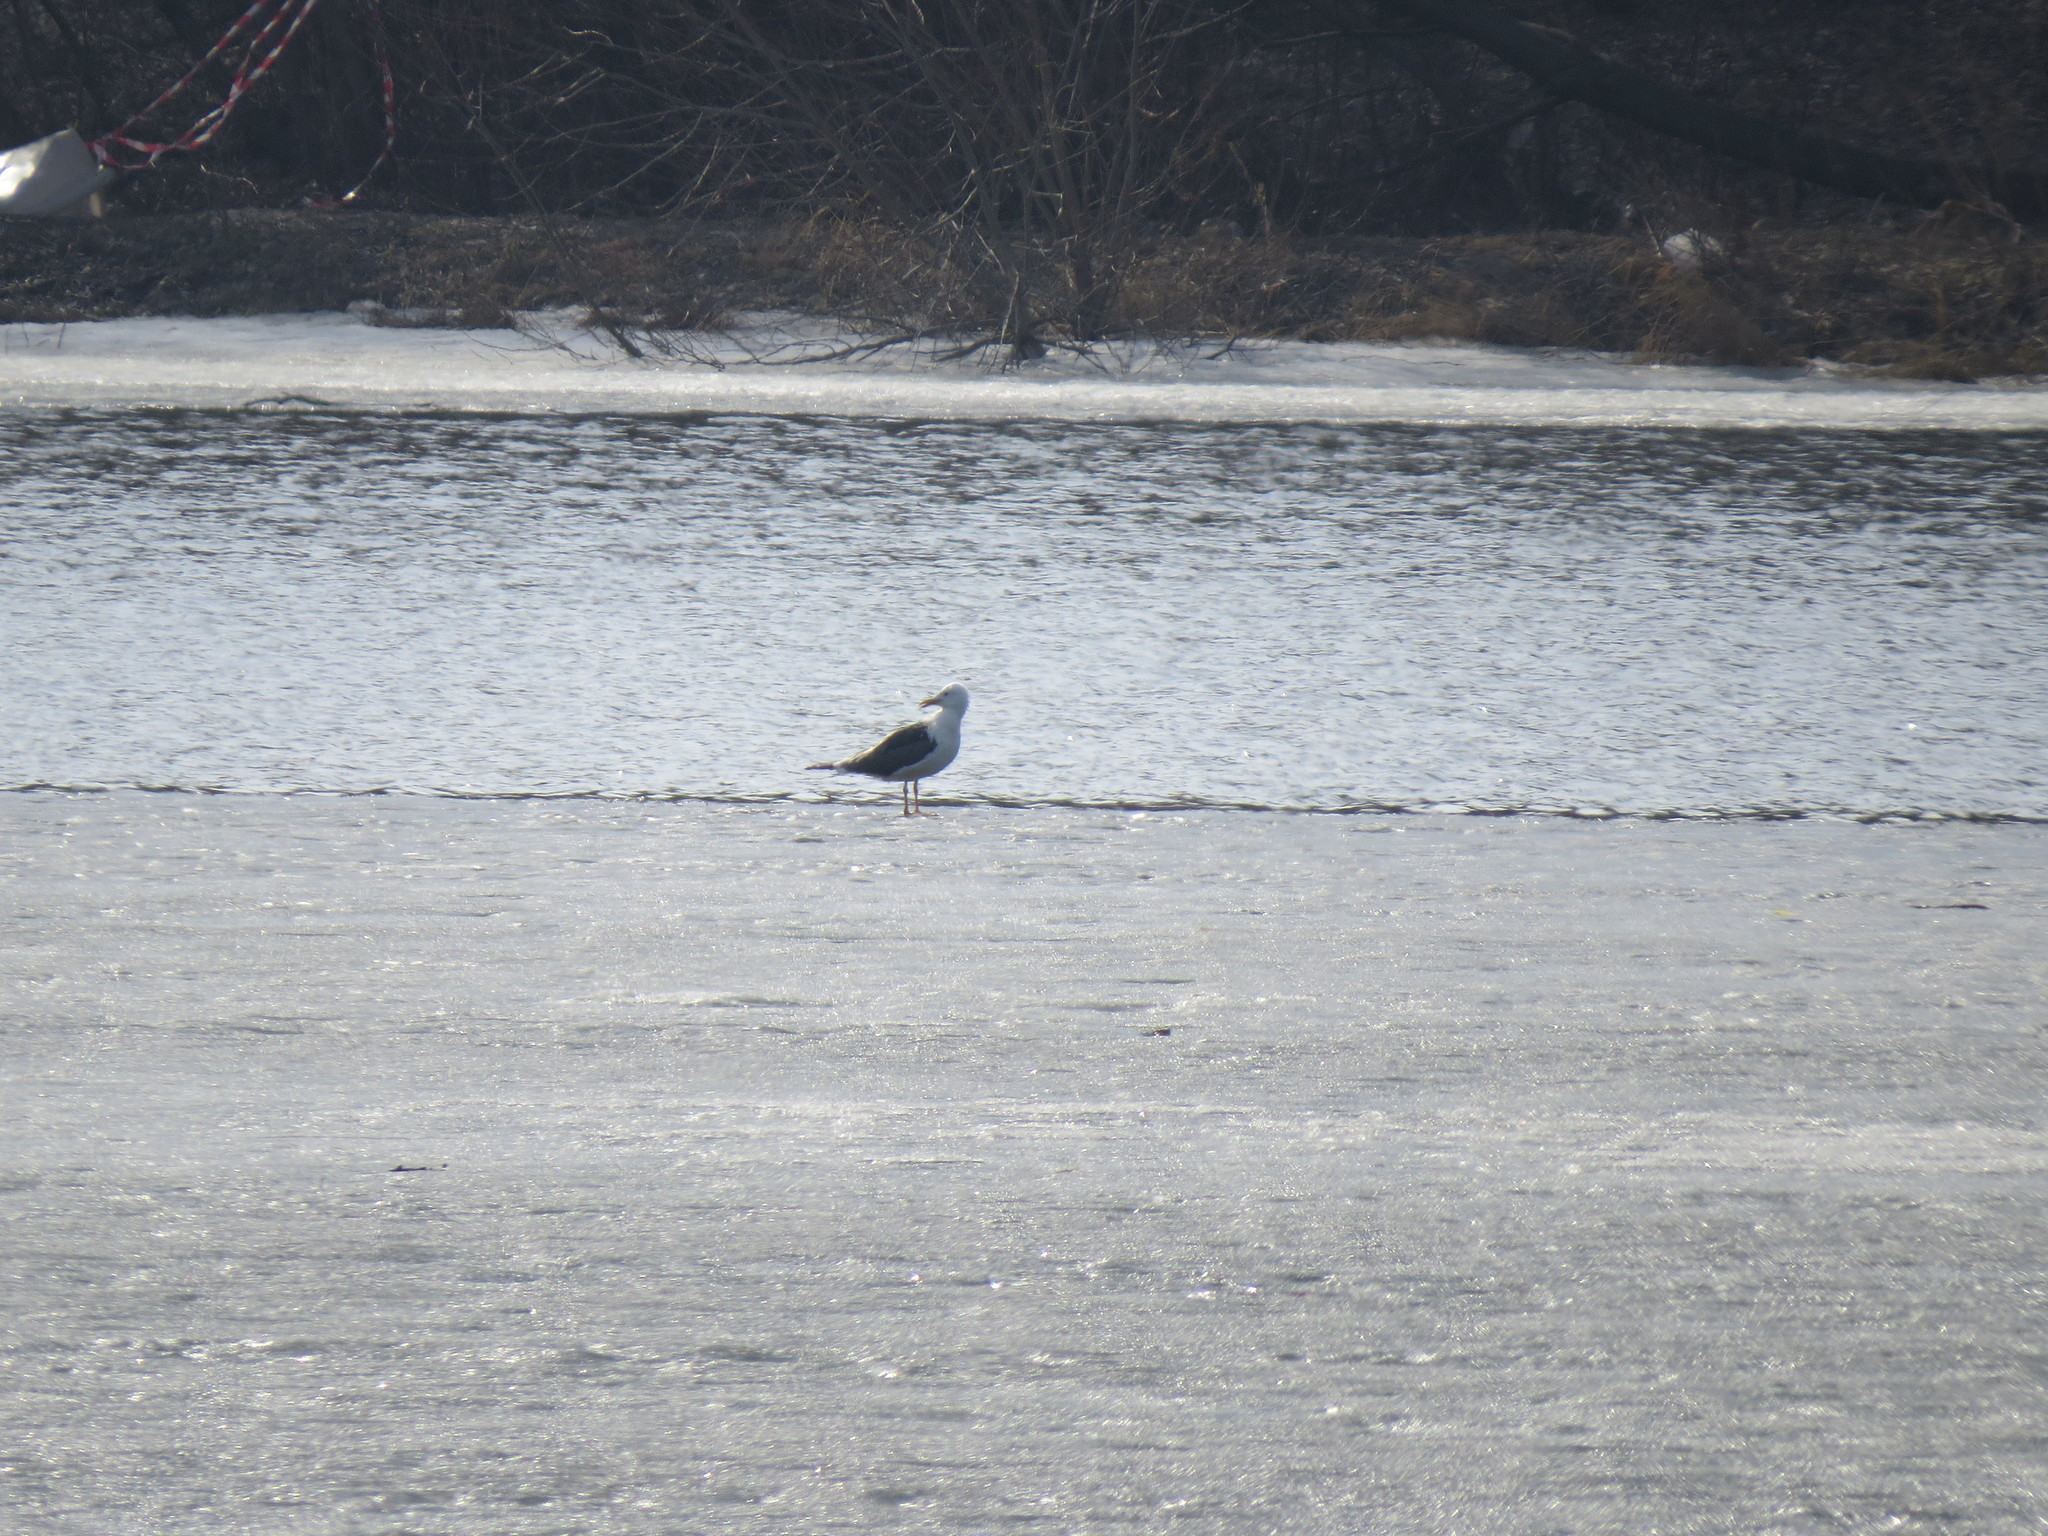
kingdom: Animalia
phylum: Chordata
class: Aves
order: Charadriiformes
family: Laridae
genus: Larus
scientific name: Larus fuscus
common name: Lesser black-backed gull
